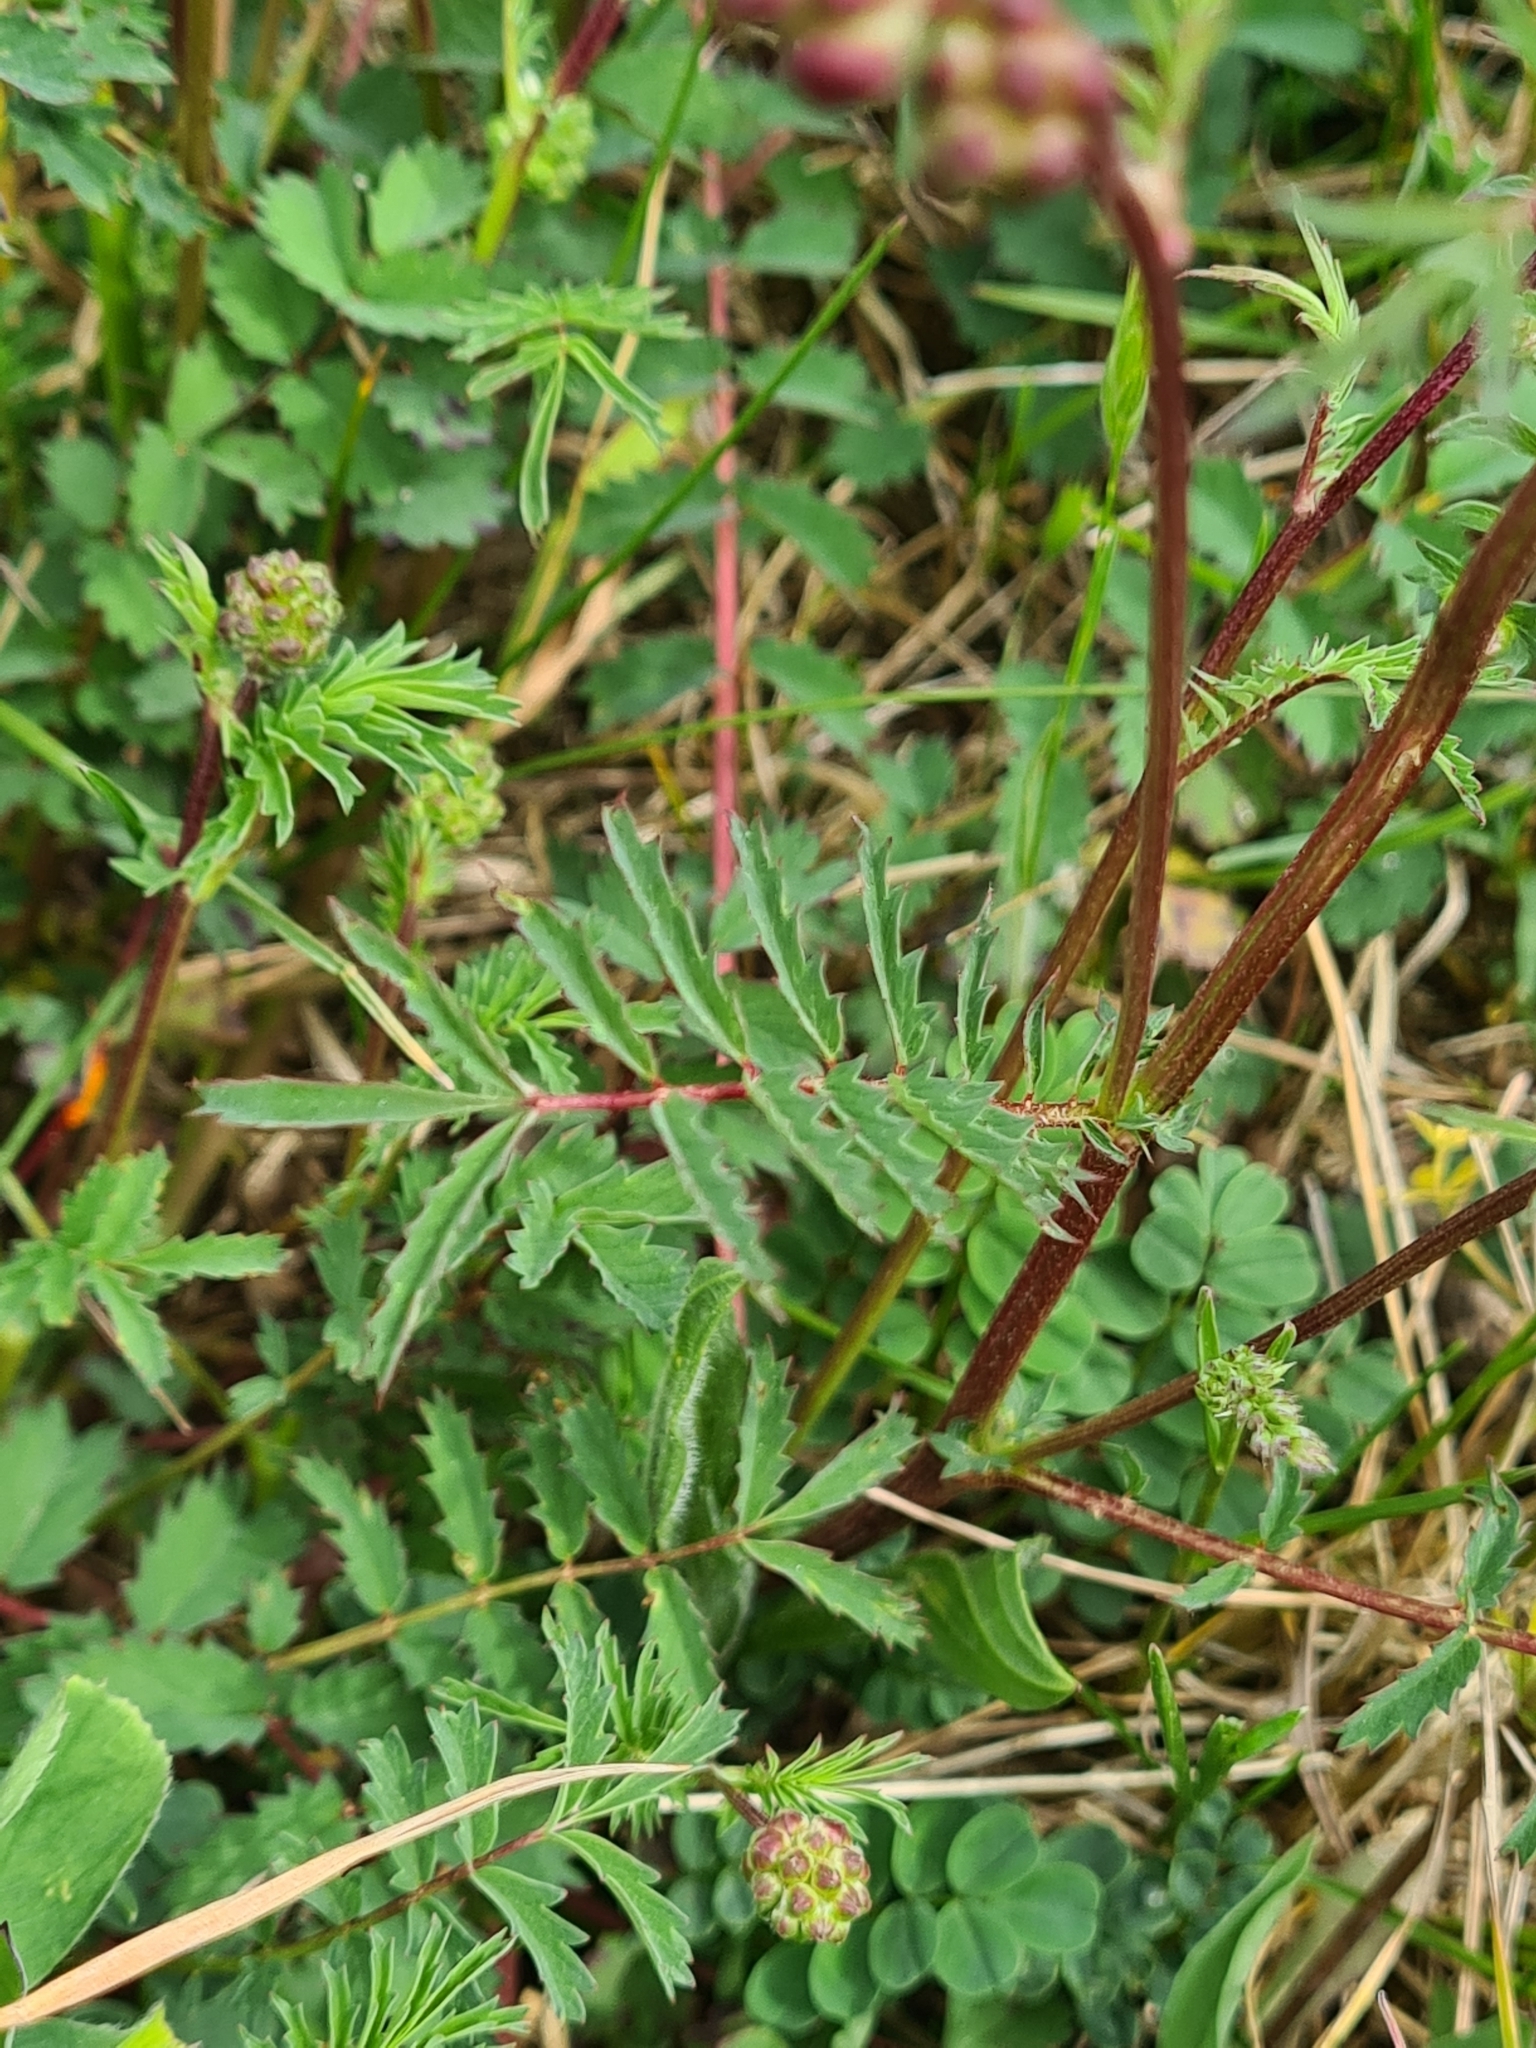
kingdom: Plantae
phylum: Tracheophyta
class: Magnoliopsida
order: Rosales
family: Rosaceae
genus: Poterium
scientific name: Poterium sanguisorba
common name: Salad burnet
